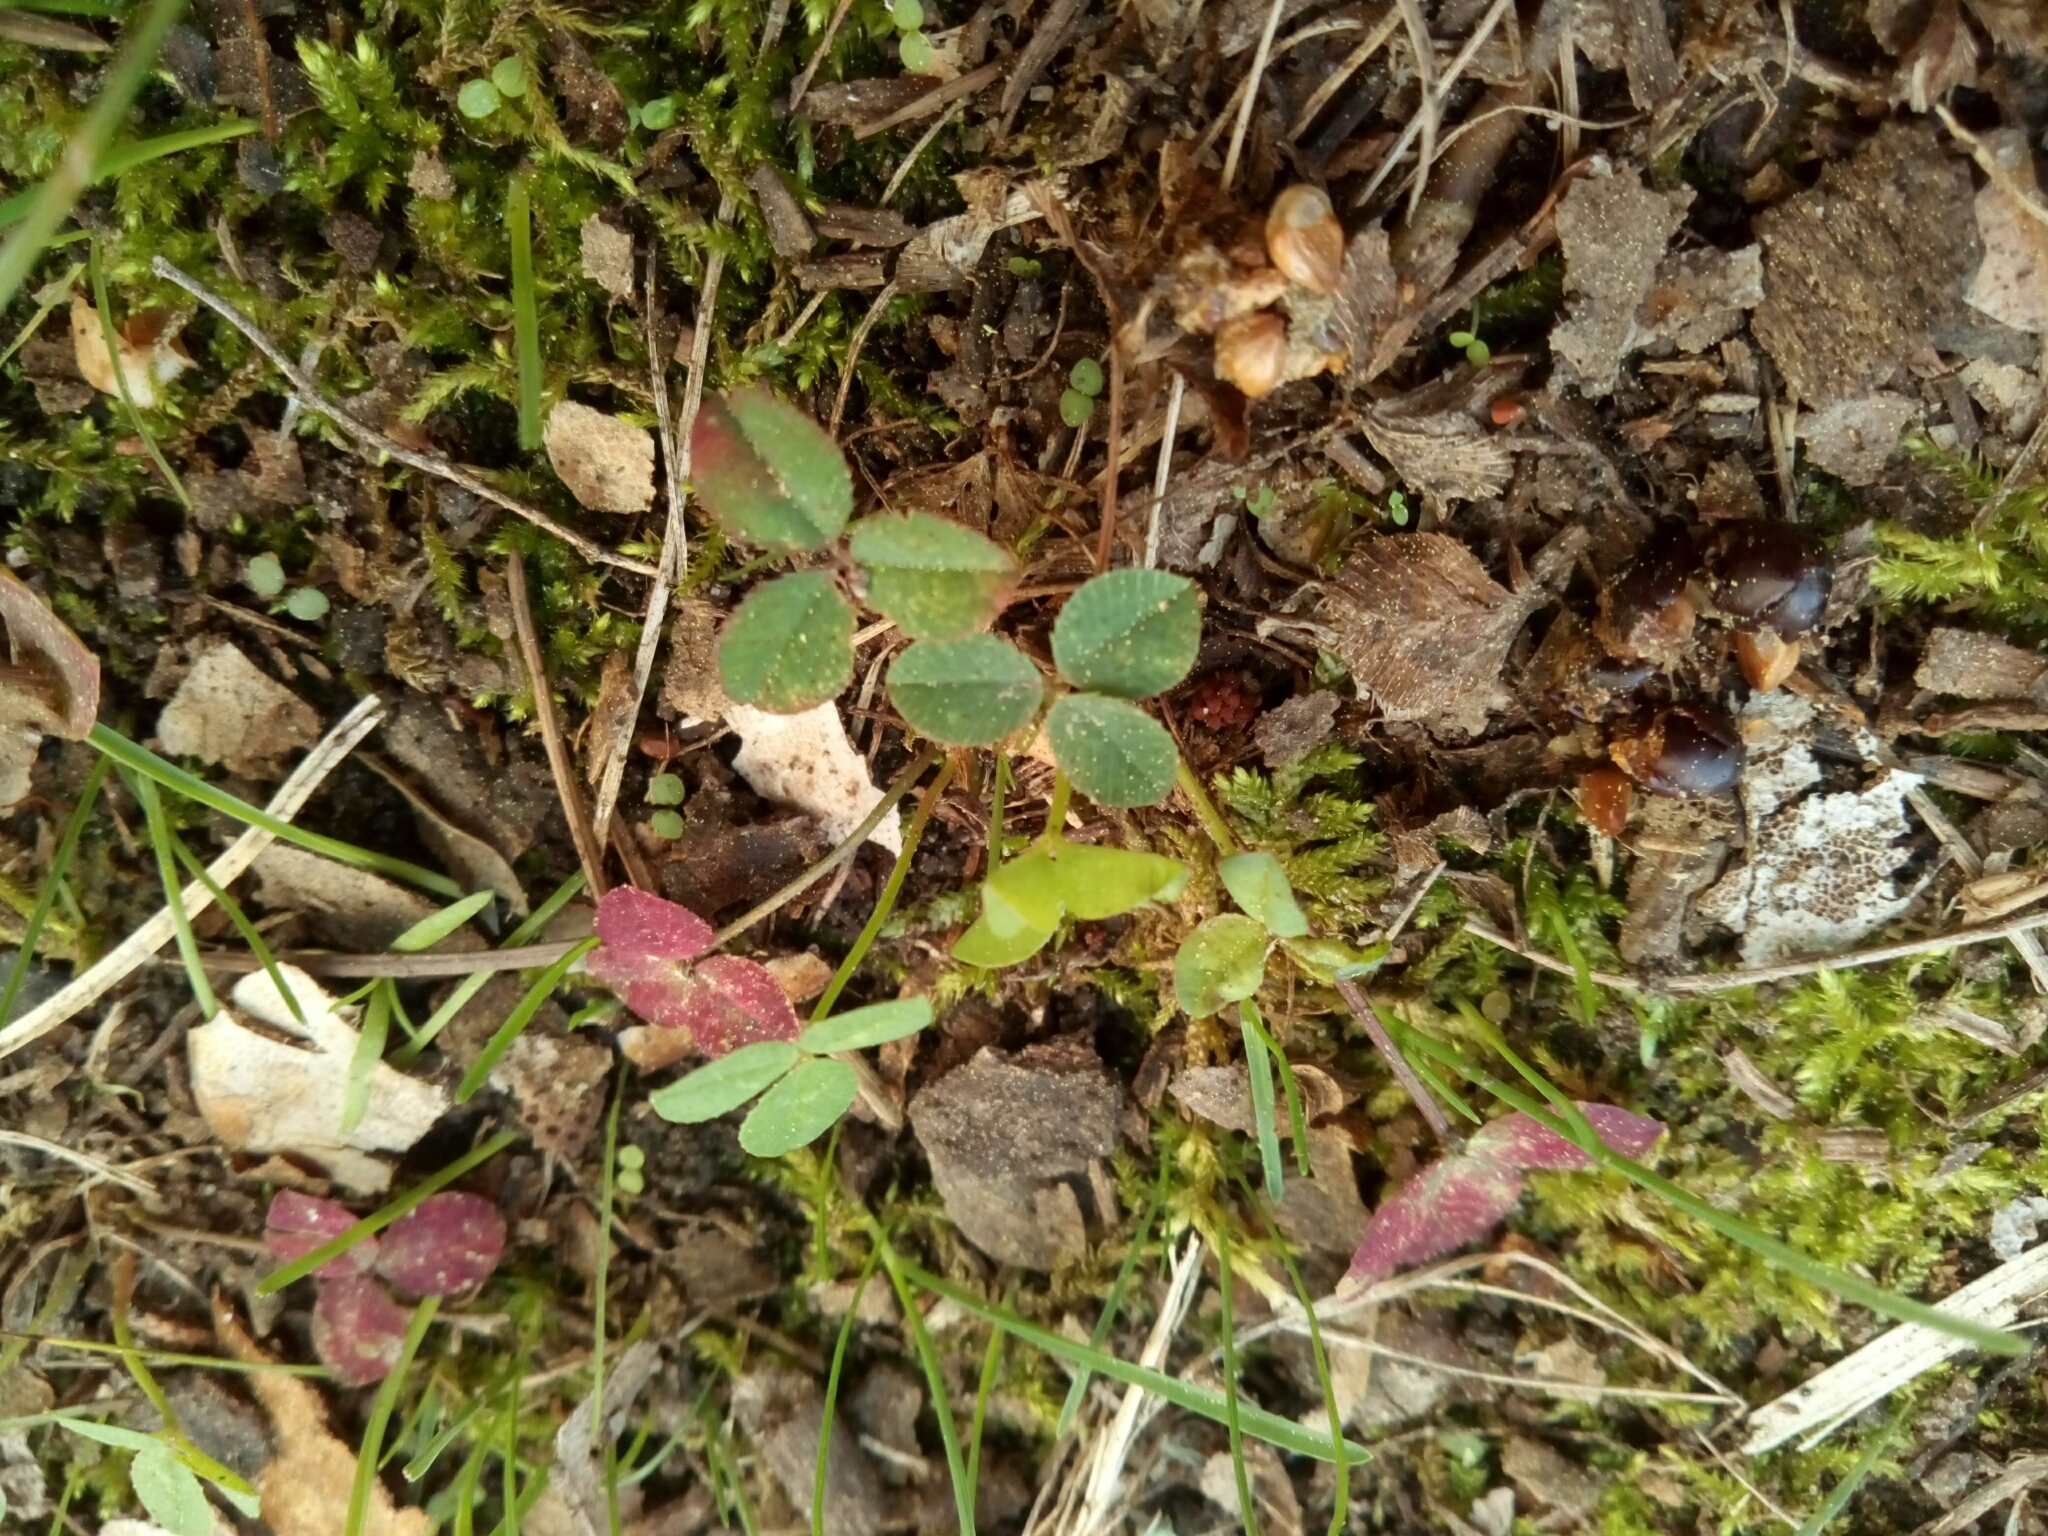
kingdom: Plantae
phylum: Tracheophyta
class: Magnoliopsida
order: Fabales
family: Fabaceae
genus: Trifolium
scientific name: Trifolium repens
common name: White clover
